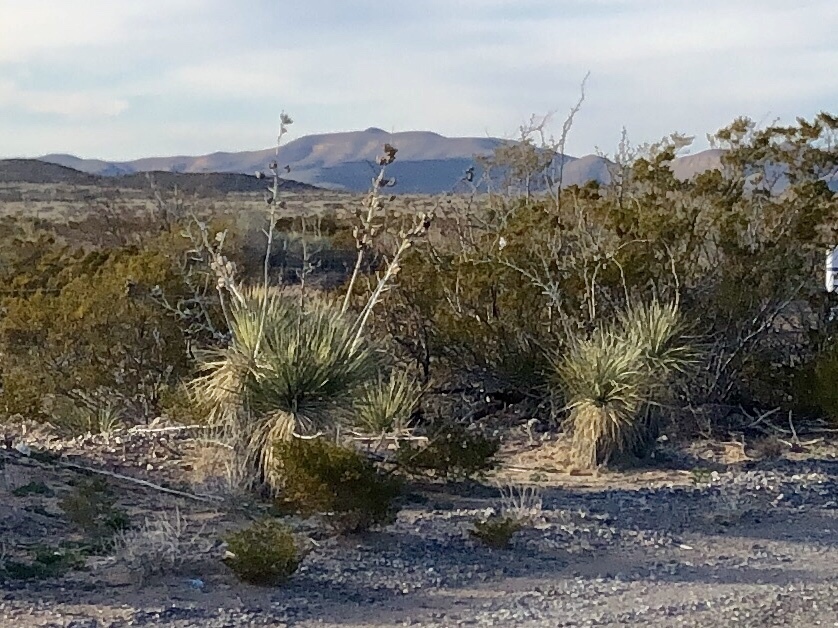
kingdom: Plantae
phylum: Tracheophyta
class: Liliopsida
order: Asparagales
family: Asparagaceae
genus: Yucca
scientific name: Yucca elata
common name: Palmella
